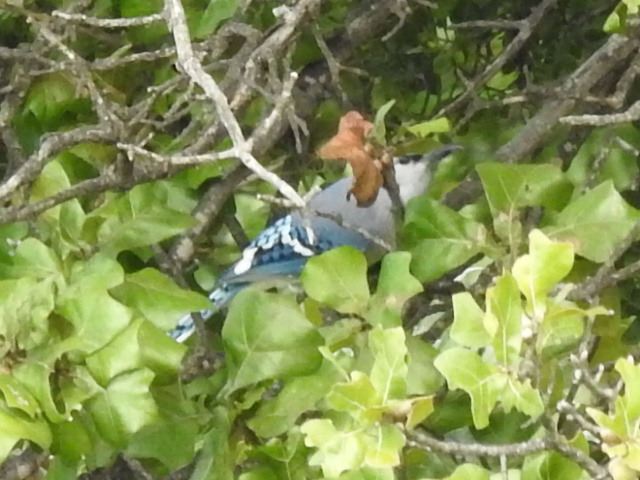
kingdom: Animalia
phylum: Chordata
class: Aves
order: Passeriformes
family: Corvidae
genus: Cyanocitta
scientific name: Cyanocitta cristata
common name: Blue jay
